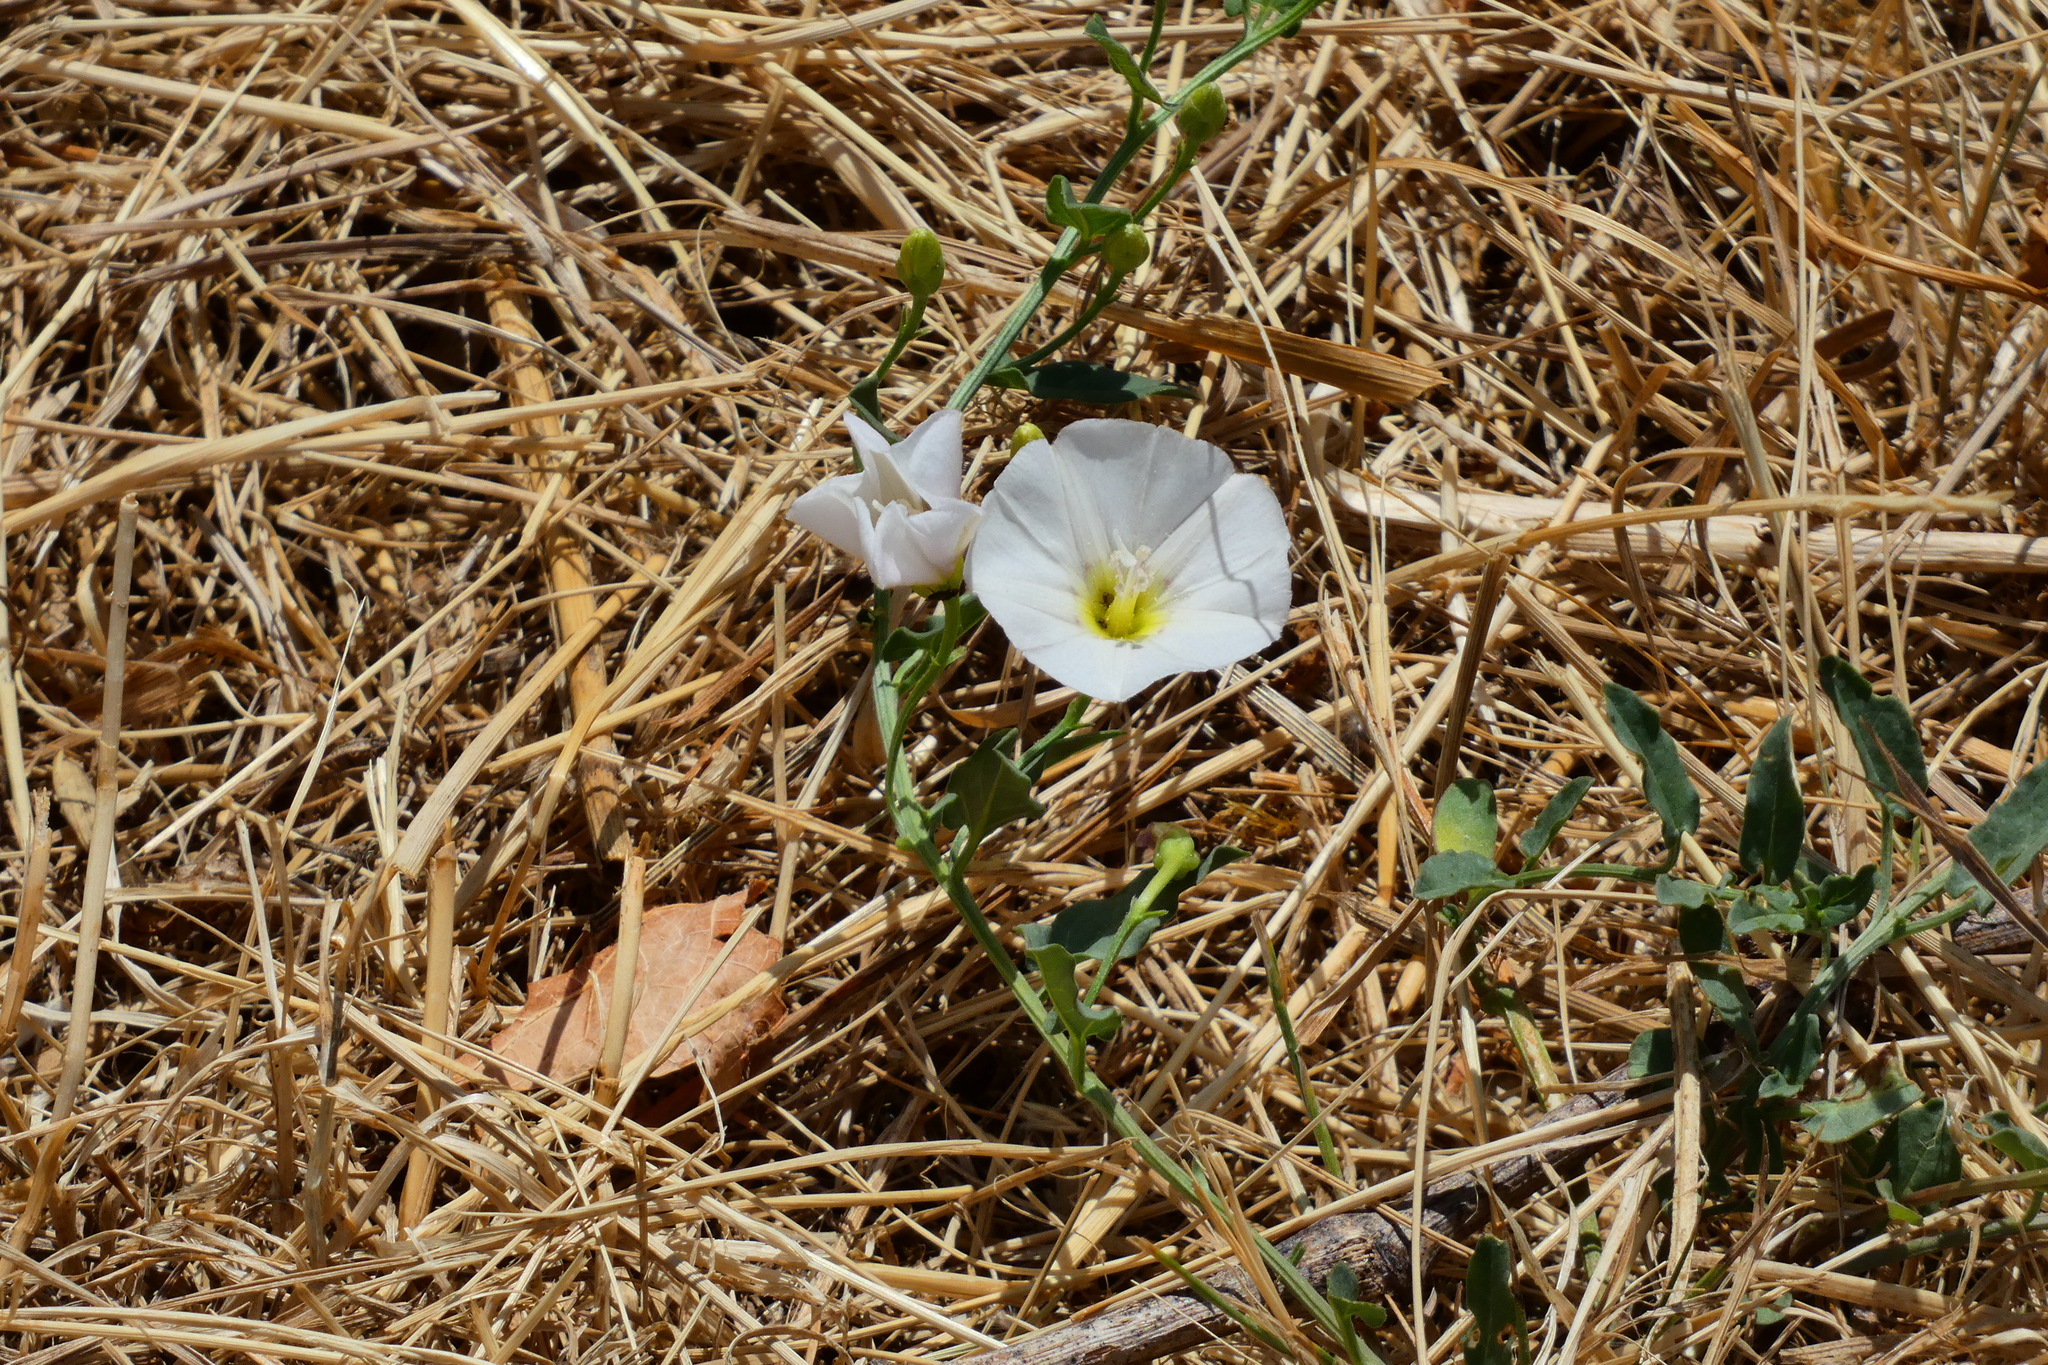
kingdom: Plantae
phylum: Tracheophyta
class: Magnoliopsida
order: Solanales
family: Convolvulaceae
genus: Convolvulus
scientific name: Convolvulus arvensis
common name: Field bindweed
